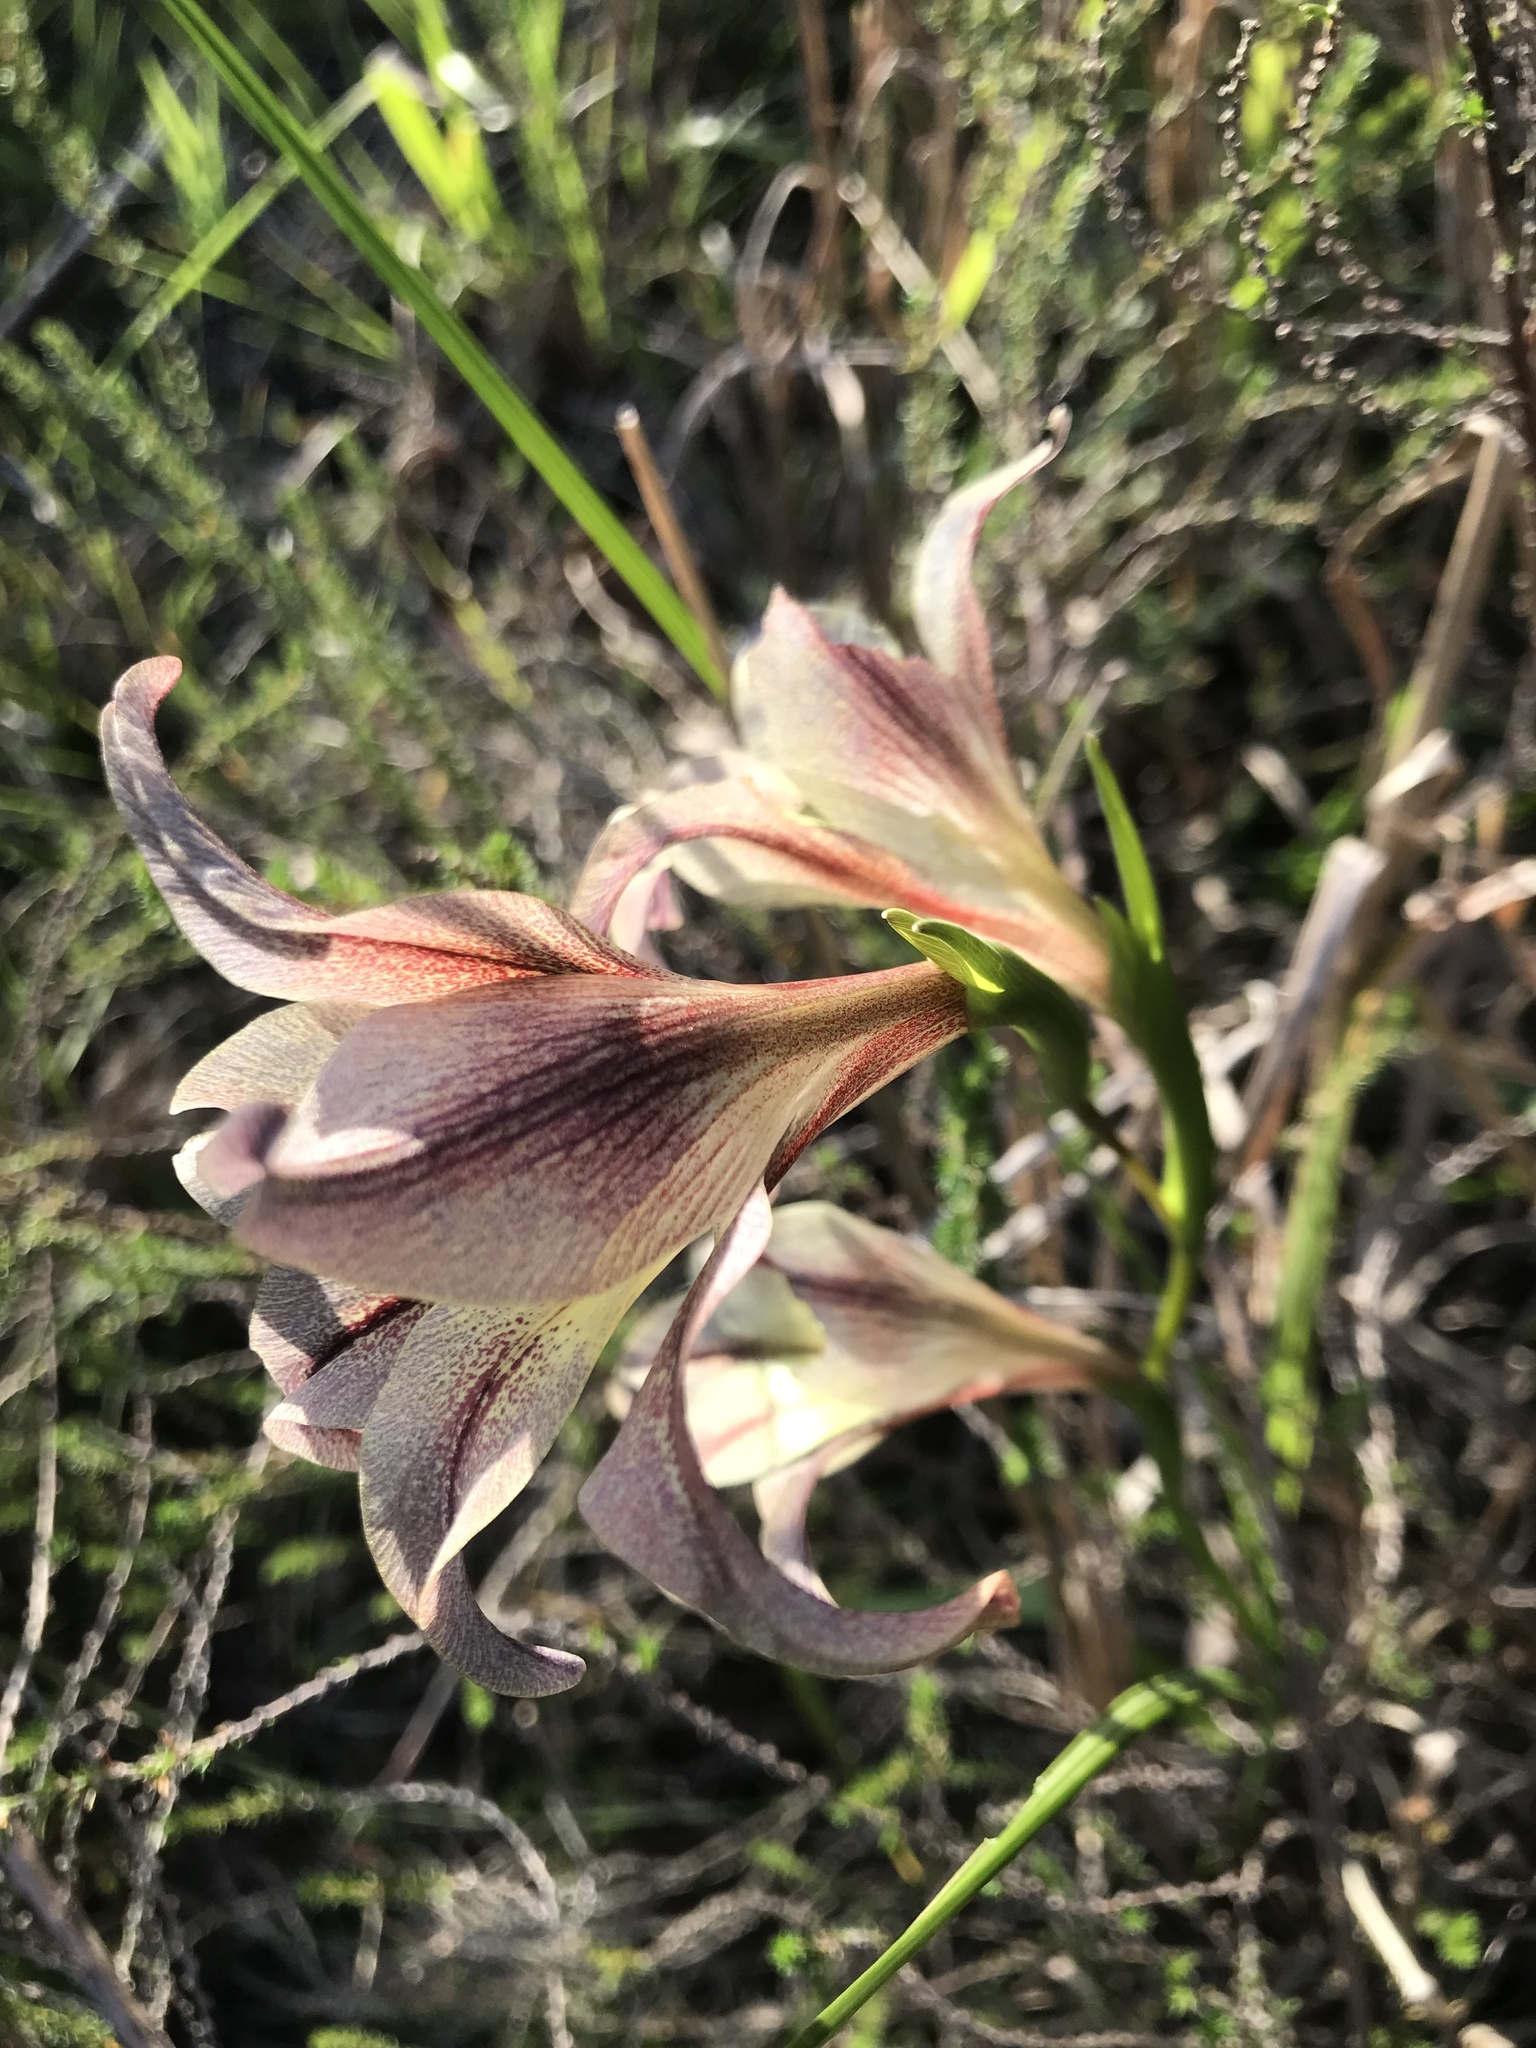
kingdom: Plantae
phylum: Tracheophyta
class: Liliopsida
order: Asparagales
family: Iridaceae
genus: Gladiolus
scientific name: Gladiolus liliaceus
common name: Large brown afrikaner
